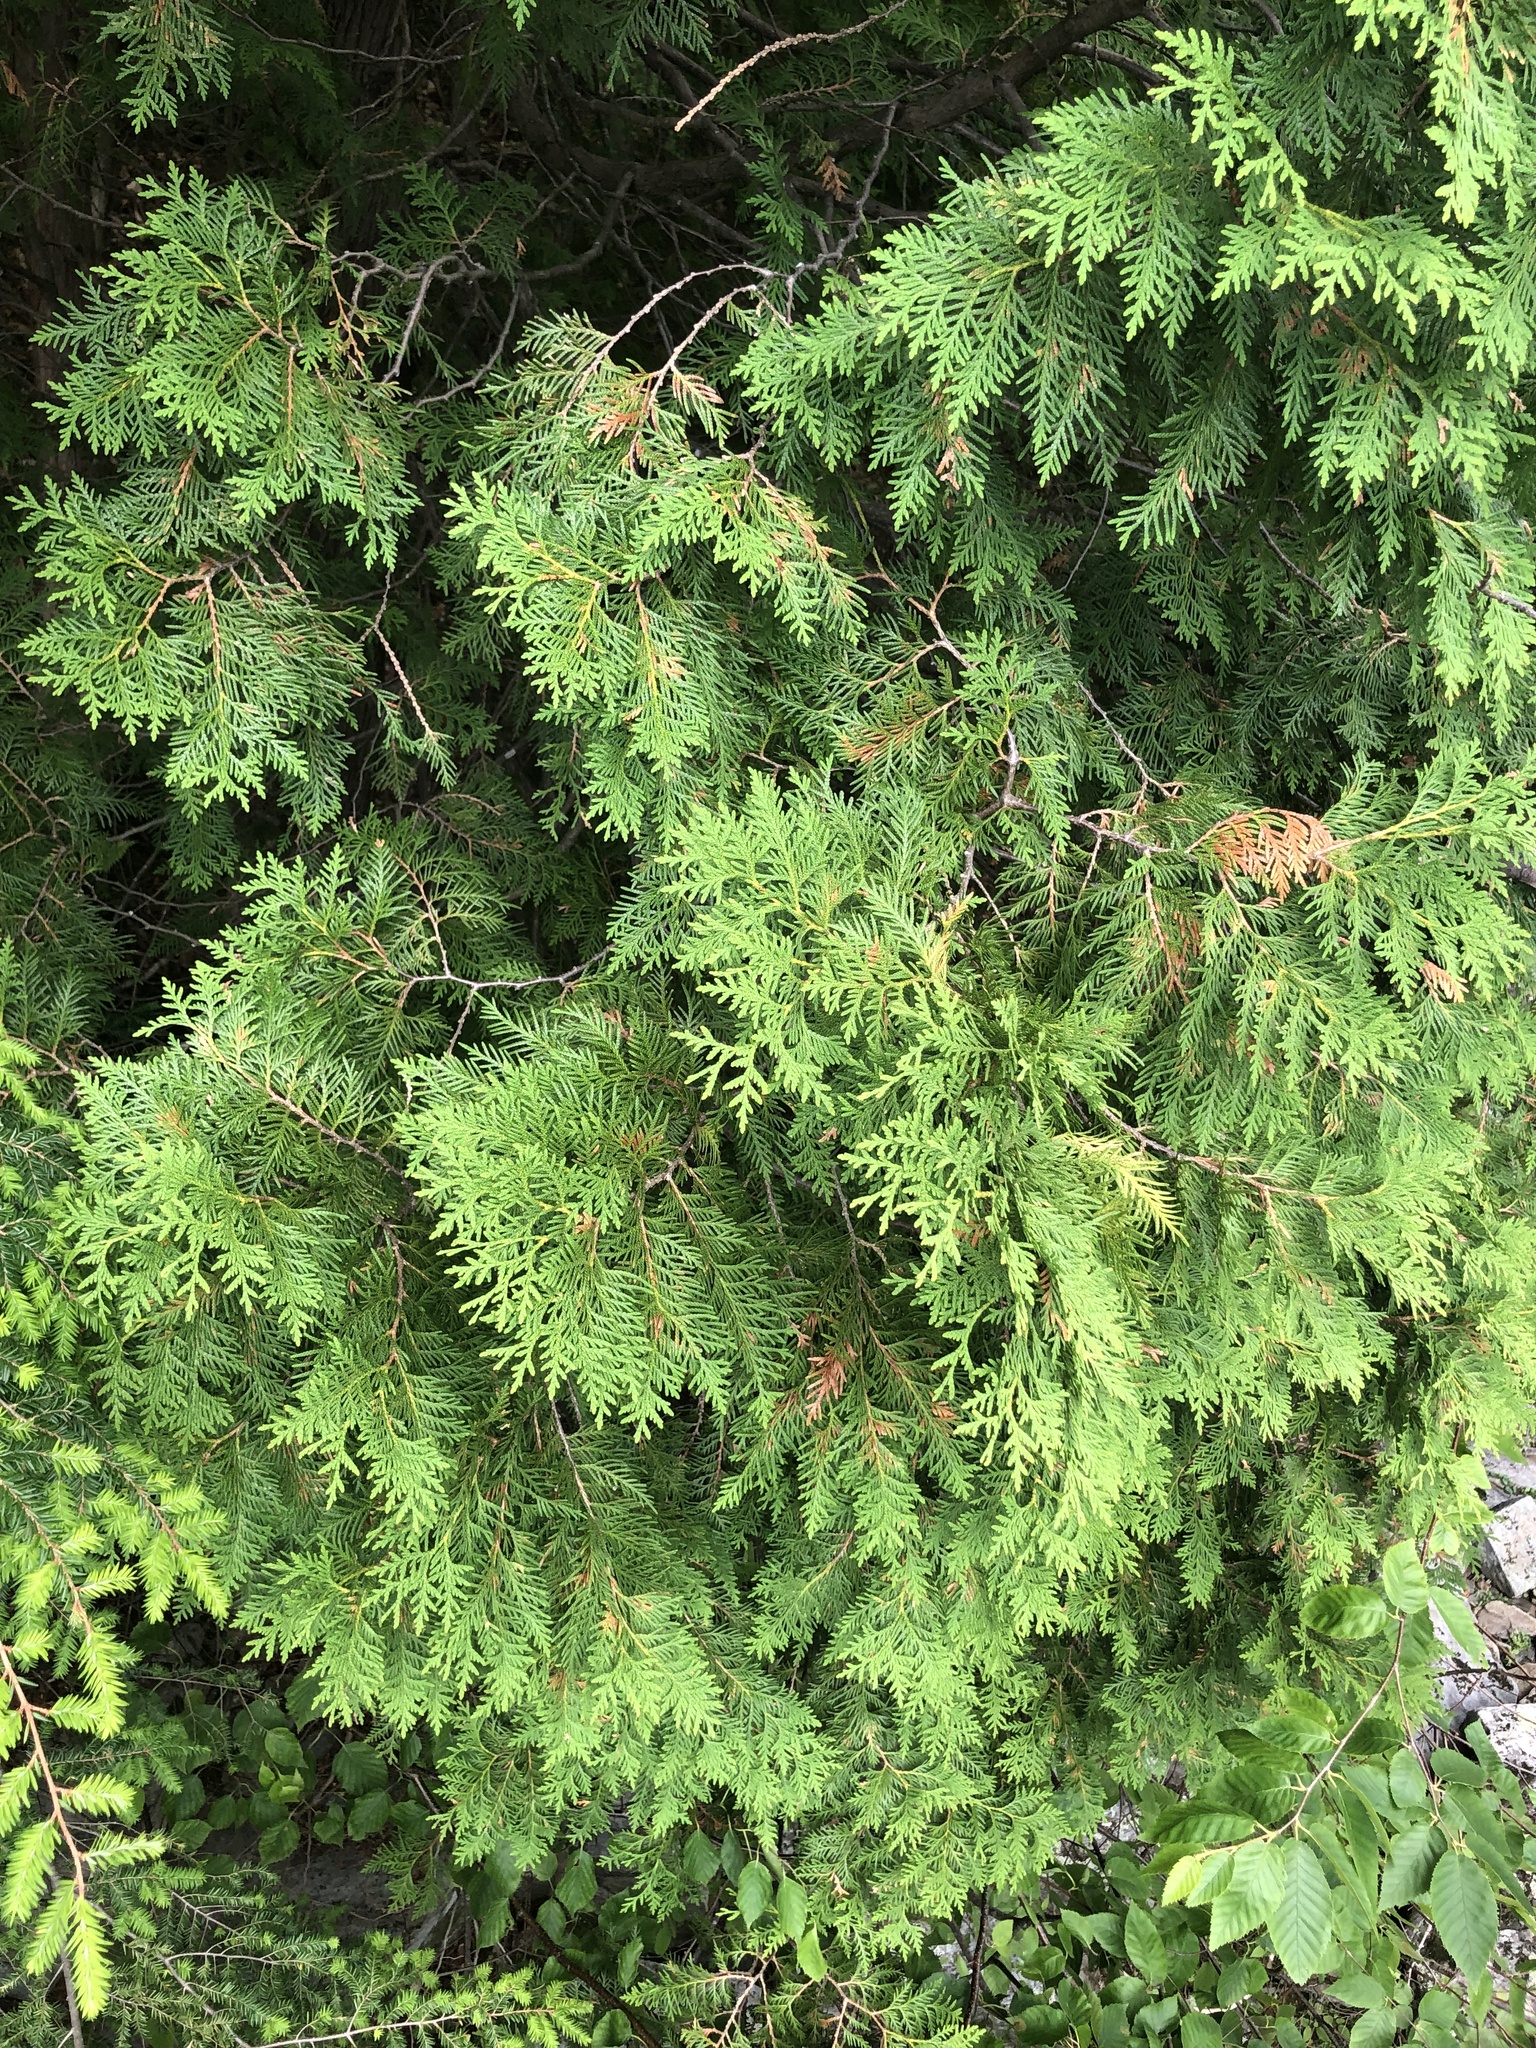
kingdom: Plantae
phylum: Tracheophyta
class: Pinopsida
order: Pinales
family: Cupressaceae
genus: Thuja
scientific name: Thuja occidentalis
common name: Northern white-cedar
